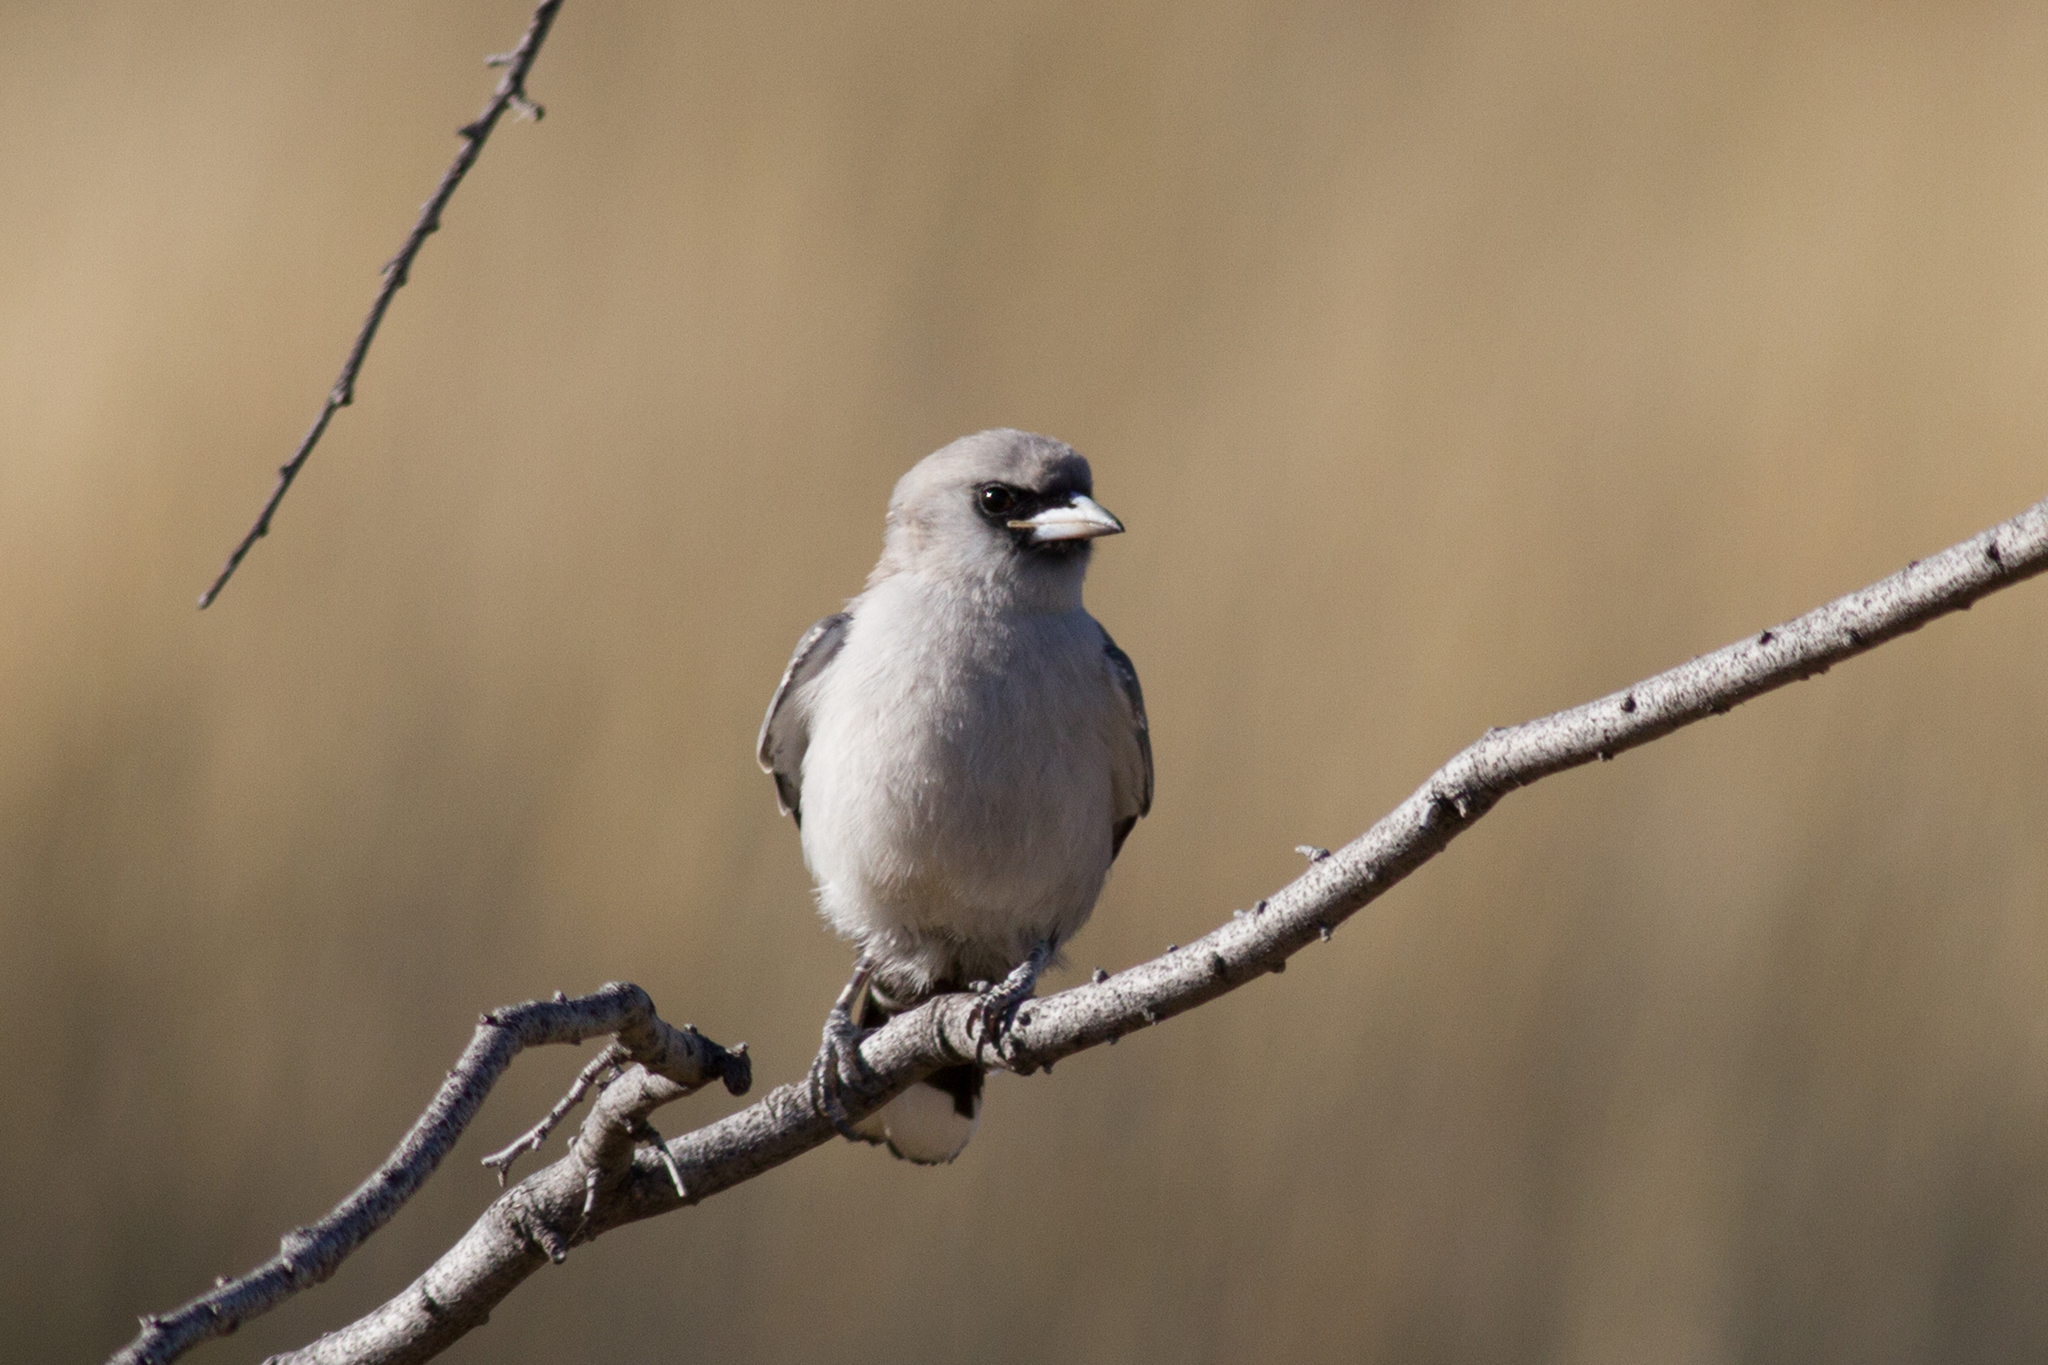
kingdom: Animalia
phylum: Chordata
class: Aves
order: Passeriformes
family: Artamidae
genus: Artamus
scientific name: Artamus cinereus
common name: Black-faced woodswallow
